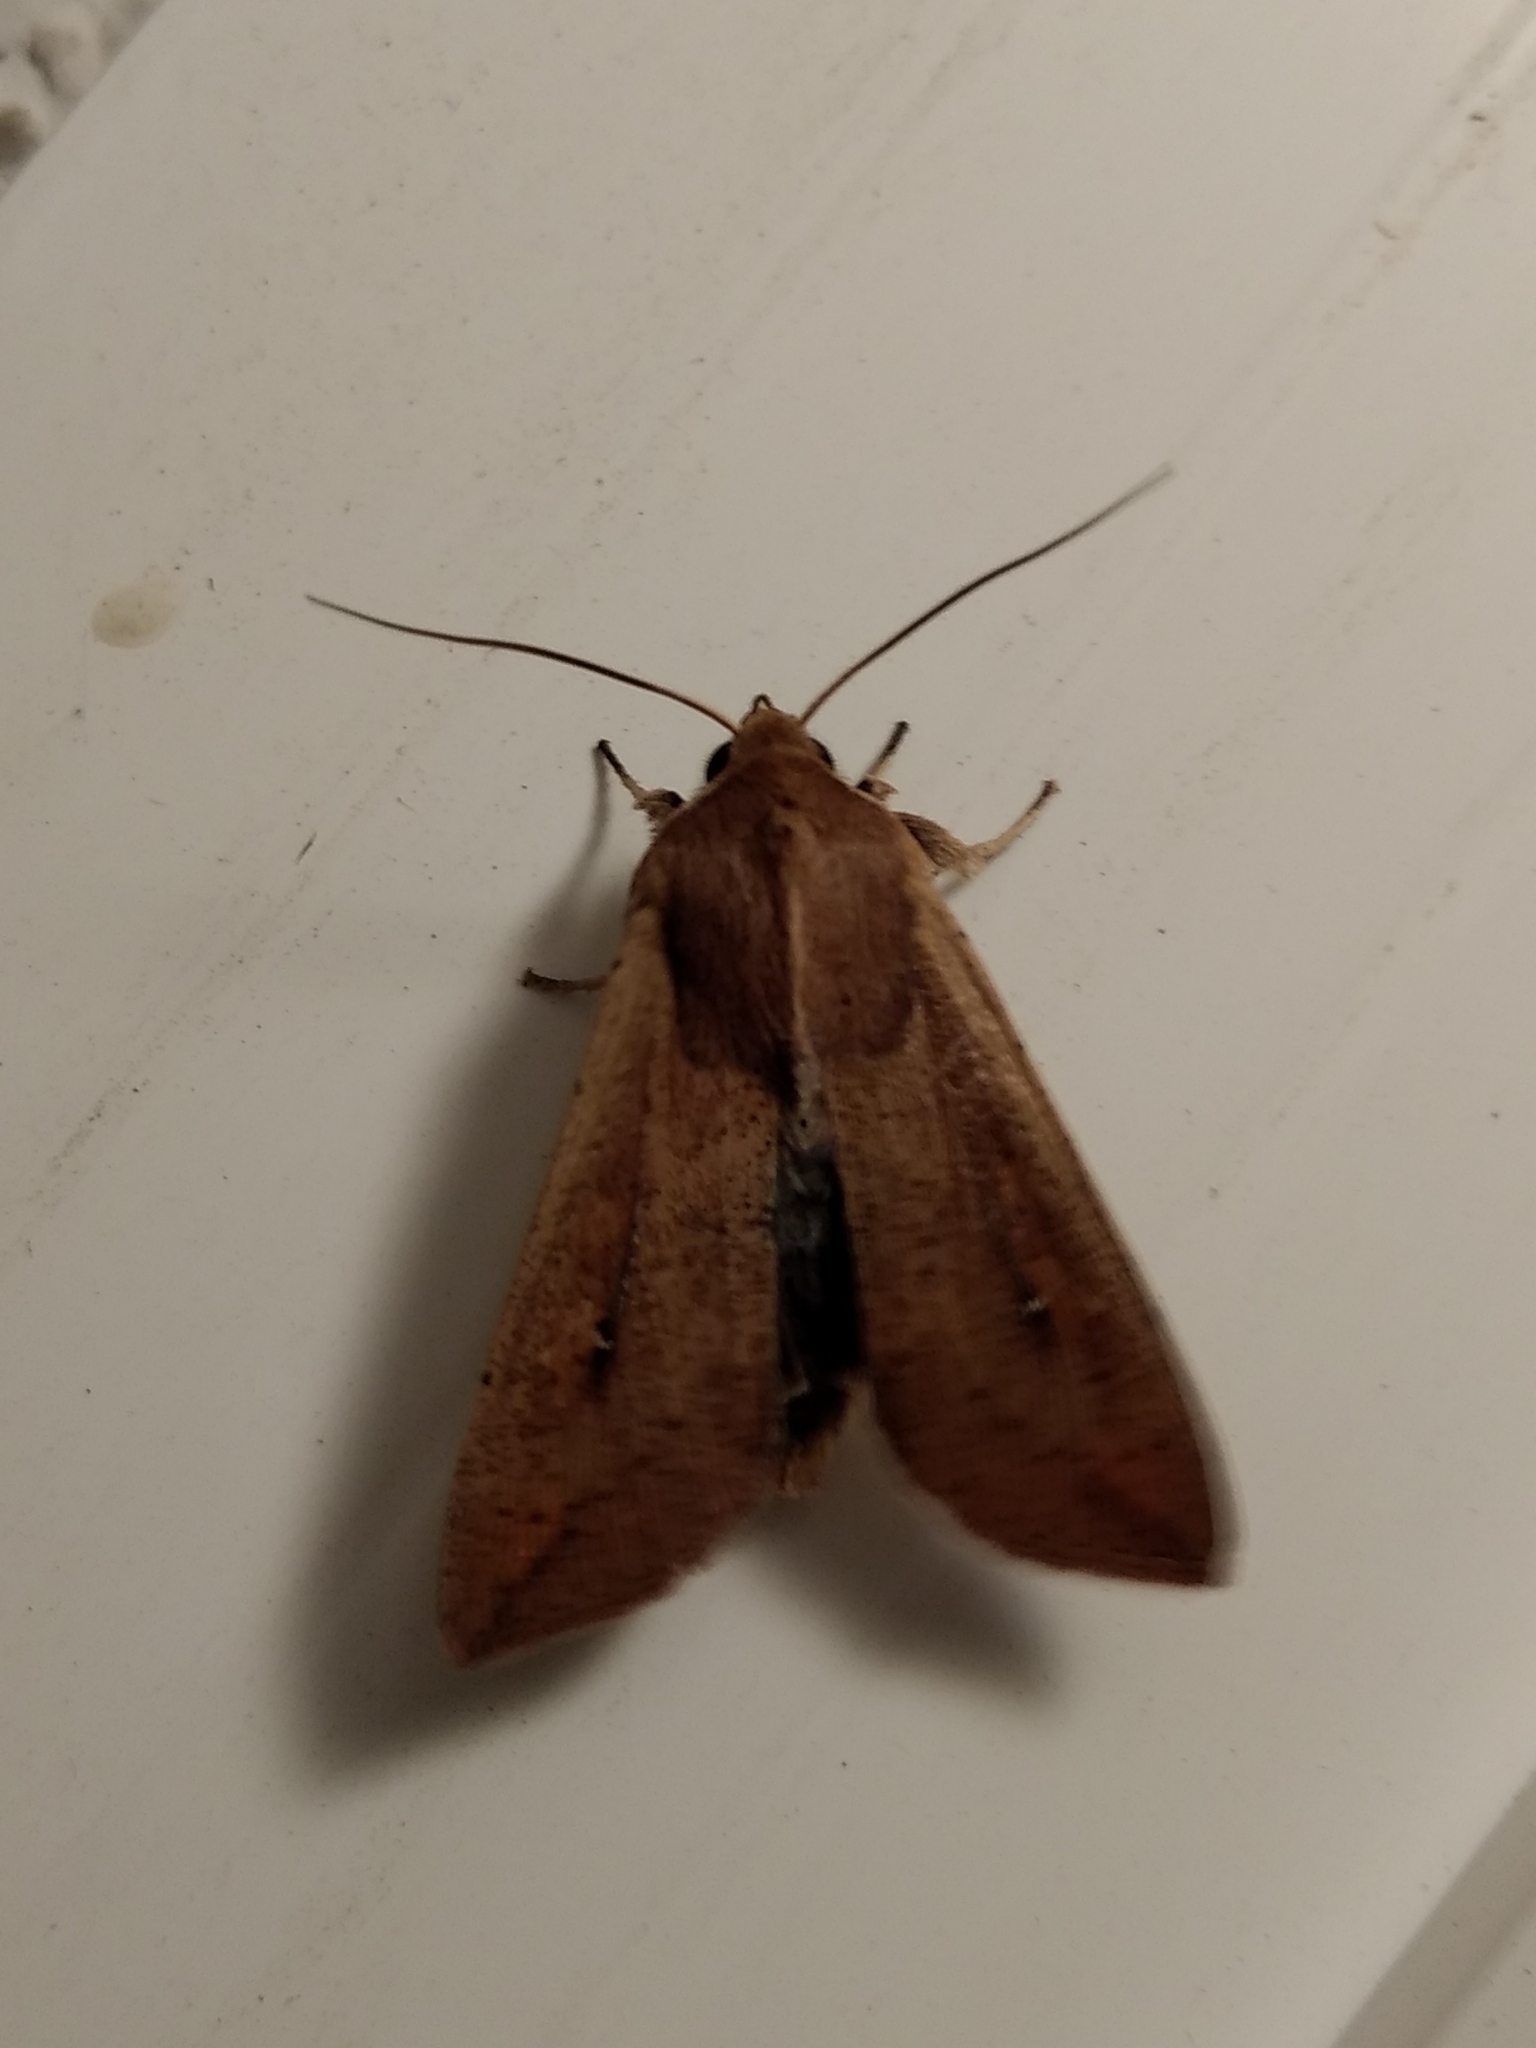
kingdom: Animalia
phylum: Arthropoda
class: Insecta
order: Lepidoptera
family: Noctuidae
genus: Mythimna
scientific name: Mythimna unipuncta
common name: White-speck
